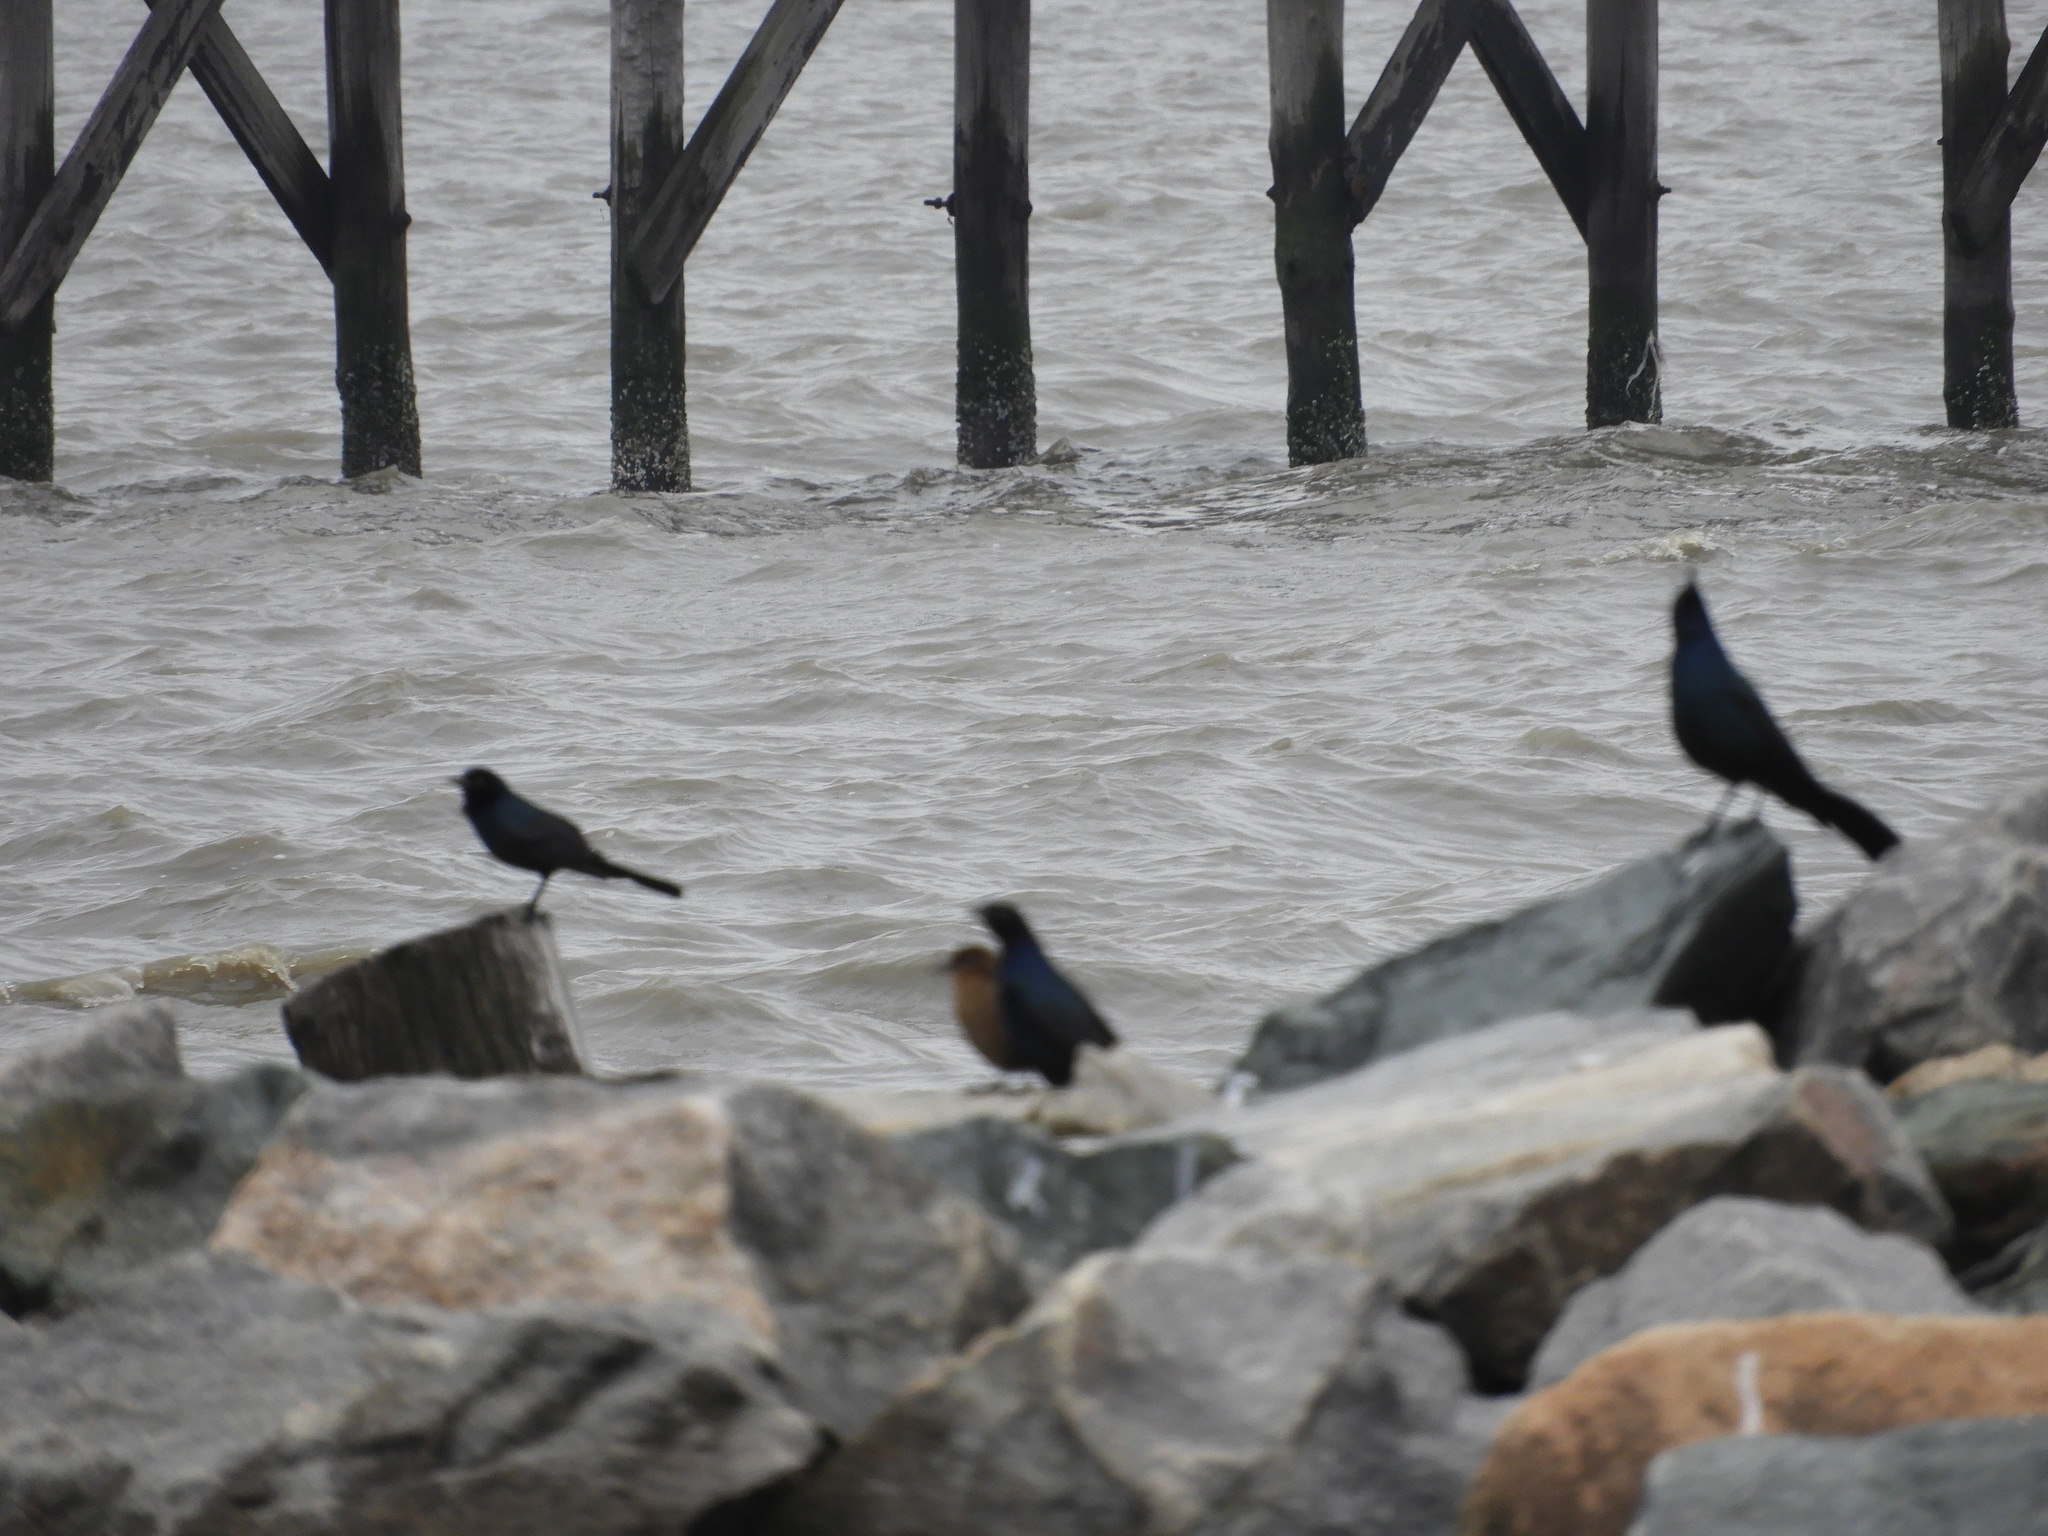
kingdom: Animalia
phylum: Chordata
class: Aves
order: Passeriformes
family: Icteridae
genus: Quiscalus
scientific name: Quiscalus major
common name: Boat-tailed grackle
